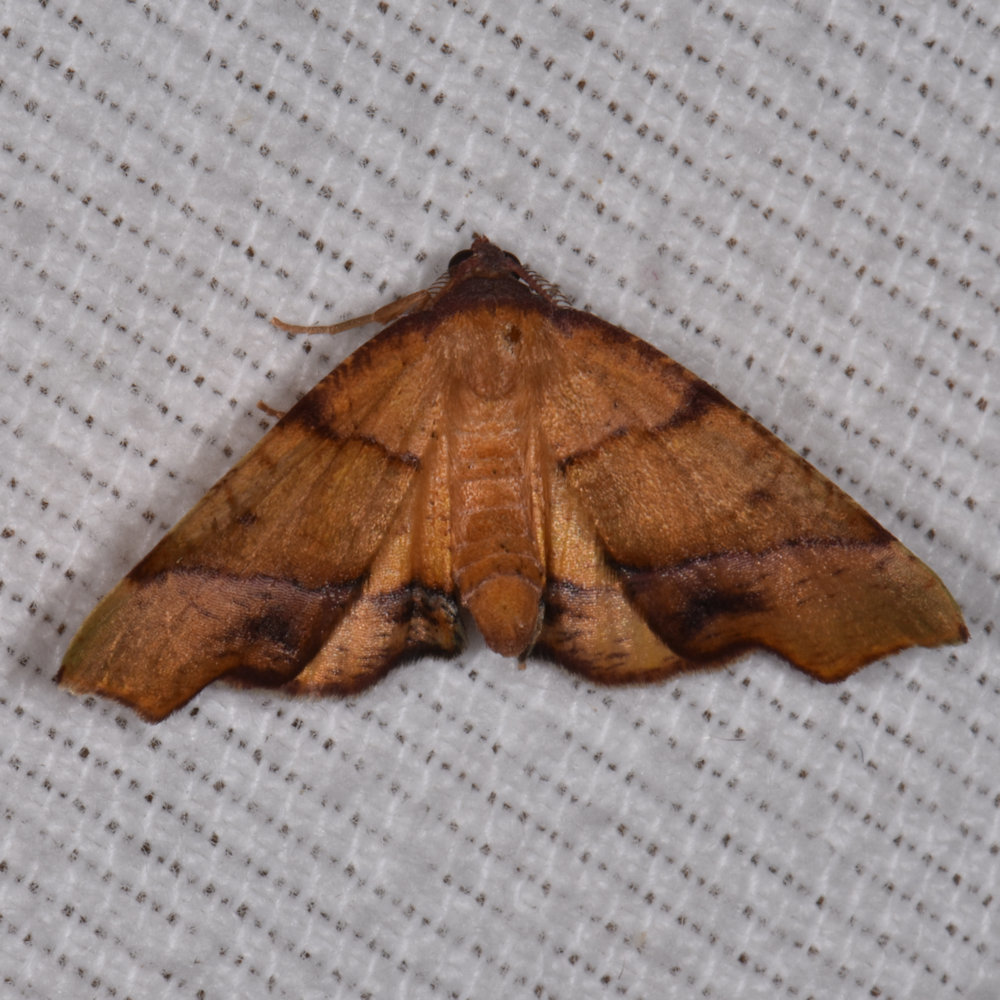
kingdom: Animalia
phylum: Arthropoda
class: Insecta
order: Lepidoptera
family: Geometridae
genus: Plagodis
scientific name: Plagodis phlogosaria
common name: Straight-lined plagodis
